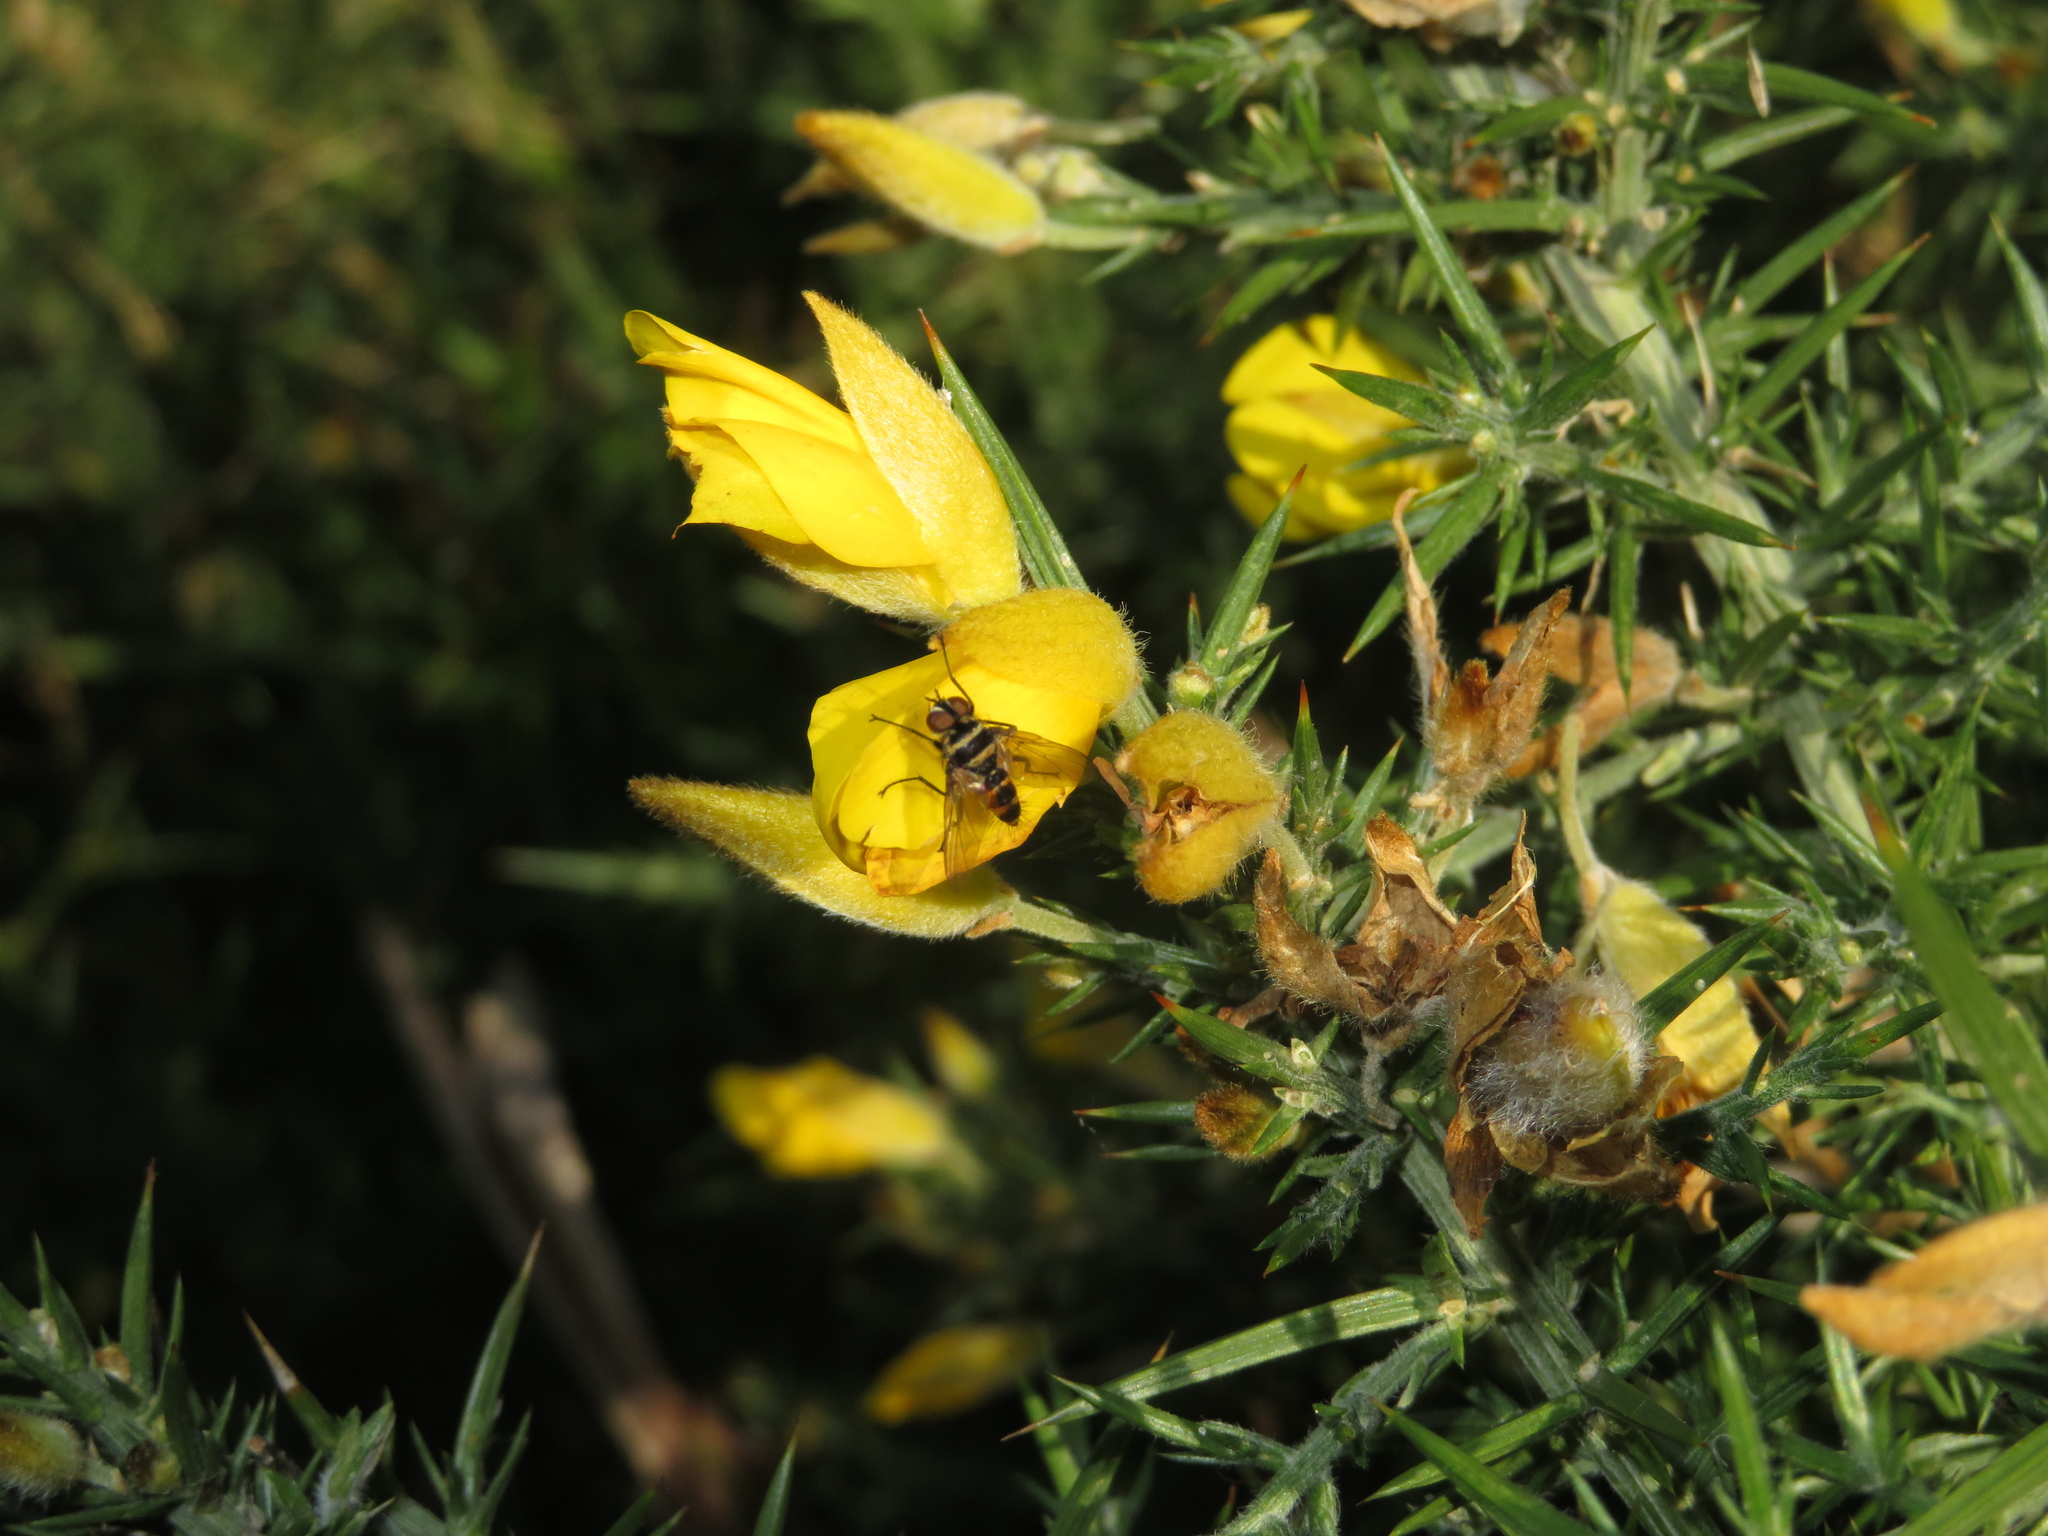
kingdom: Animalia
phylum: Arthropoda
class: Insecta
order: Diptera
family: Tachinidae
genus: Trigonospila
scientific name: Trigonospila brevifacies
